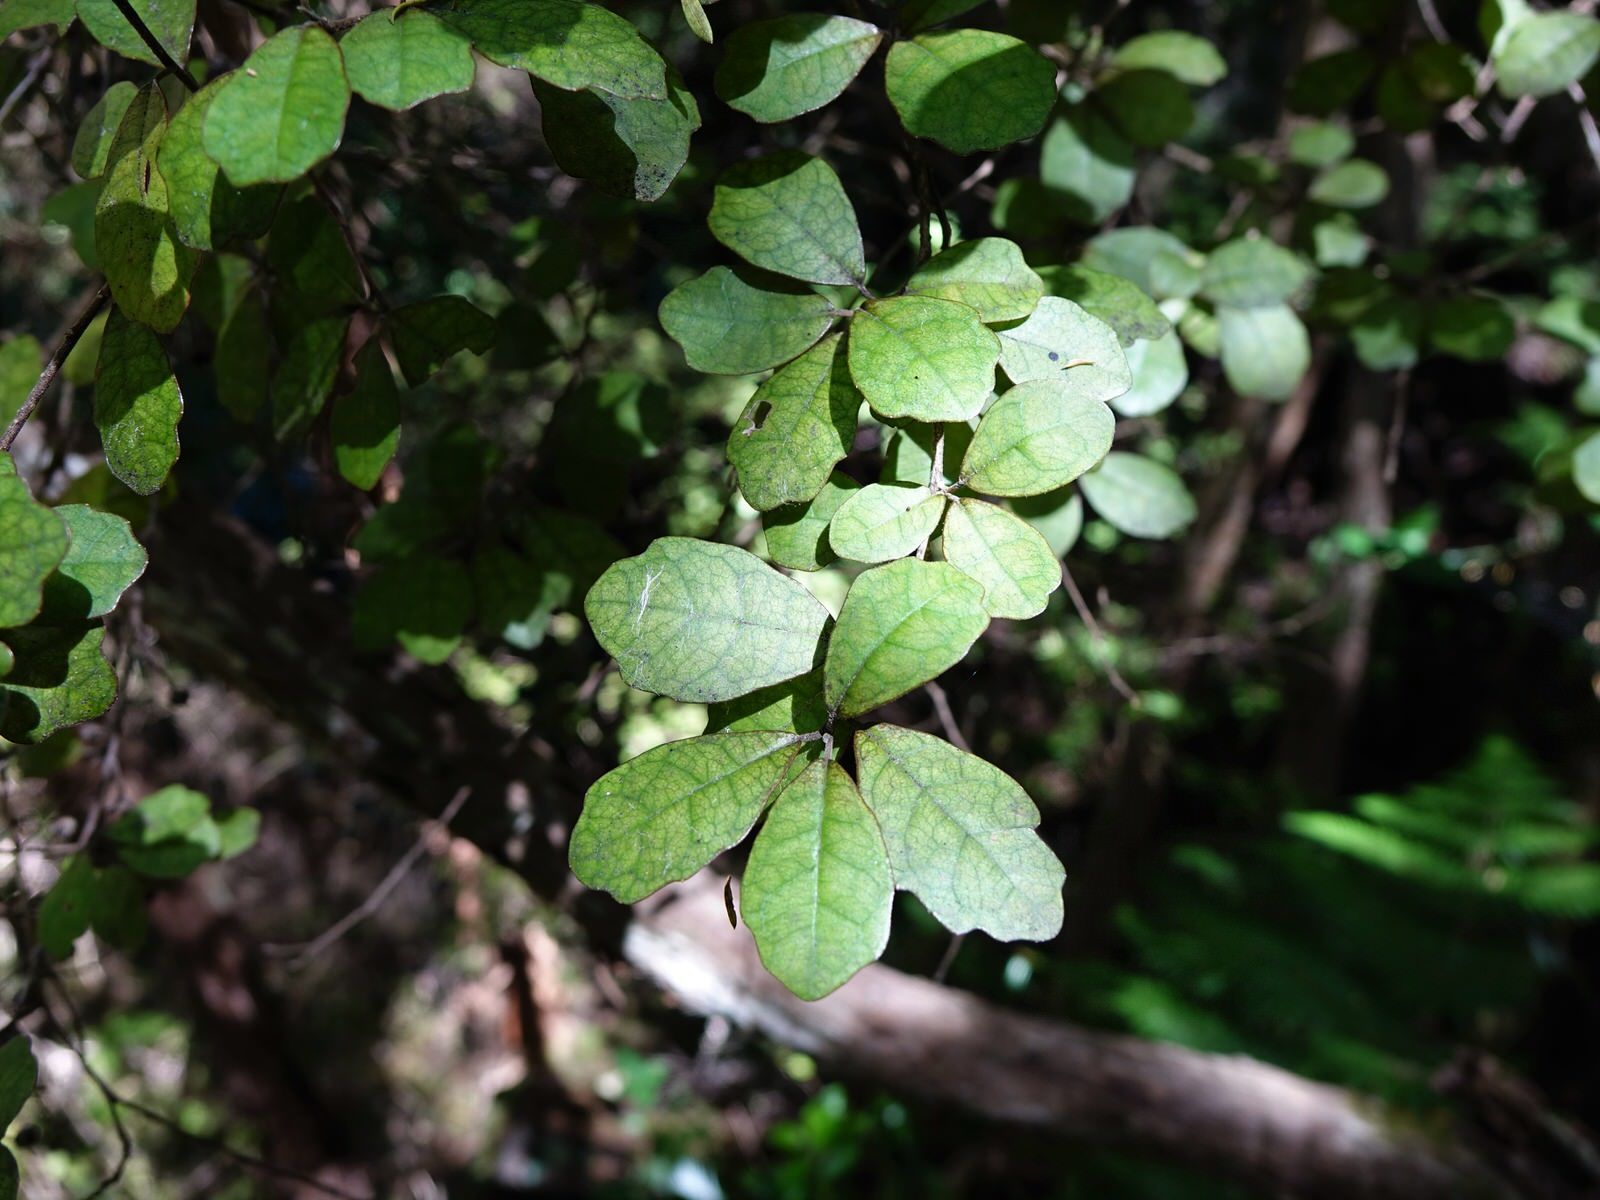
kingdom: Plantae
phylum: Tracheophyta
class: Magnoliopsida
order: Apiales
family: Pennantiaceae
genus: Pennantia
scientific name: Pennantia corymbosa
